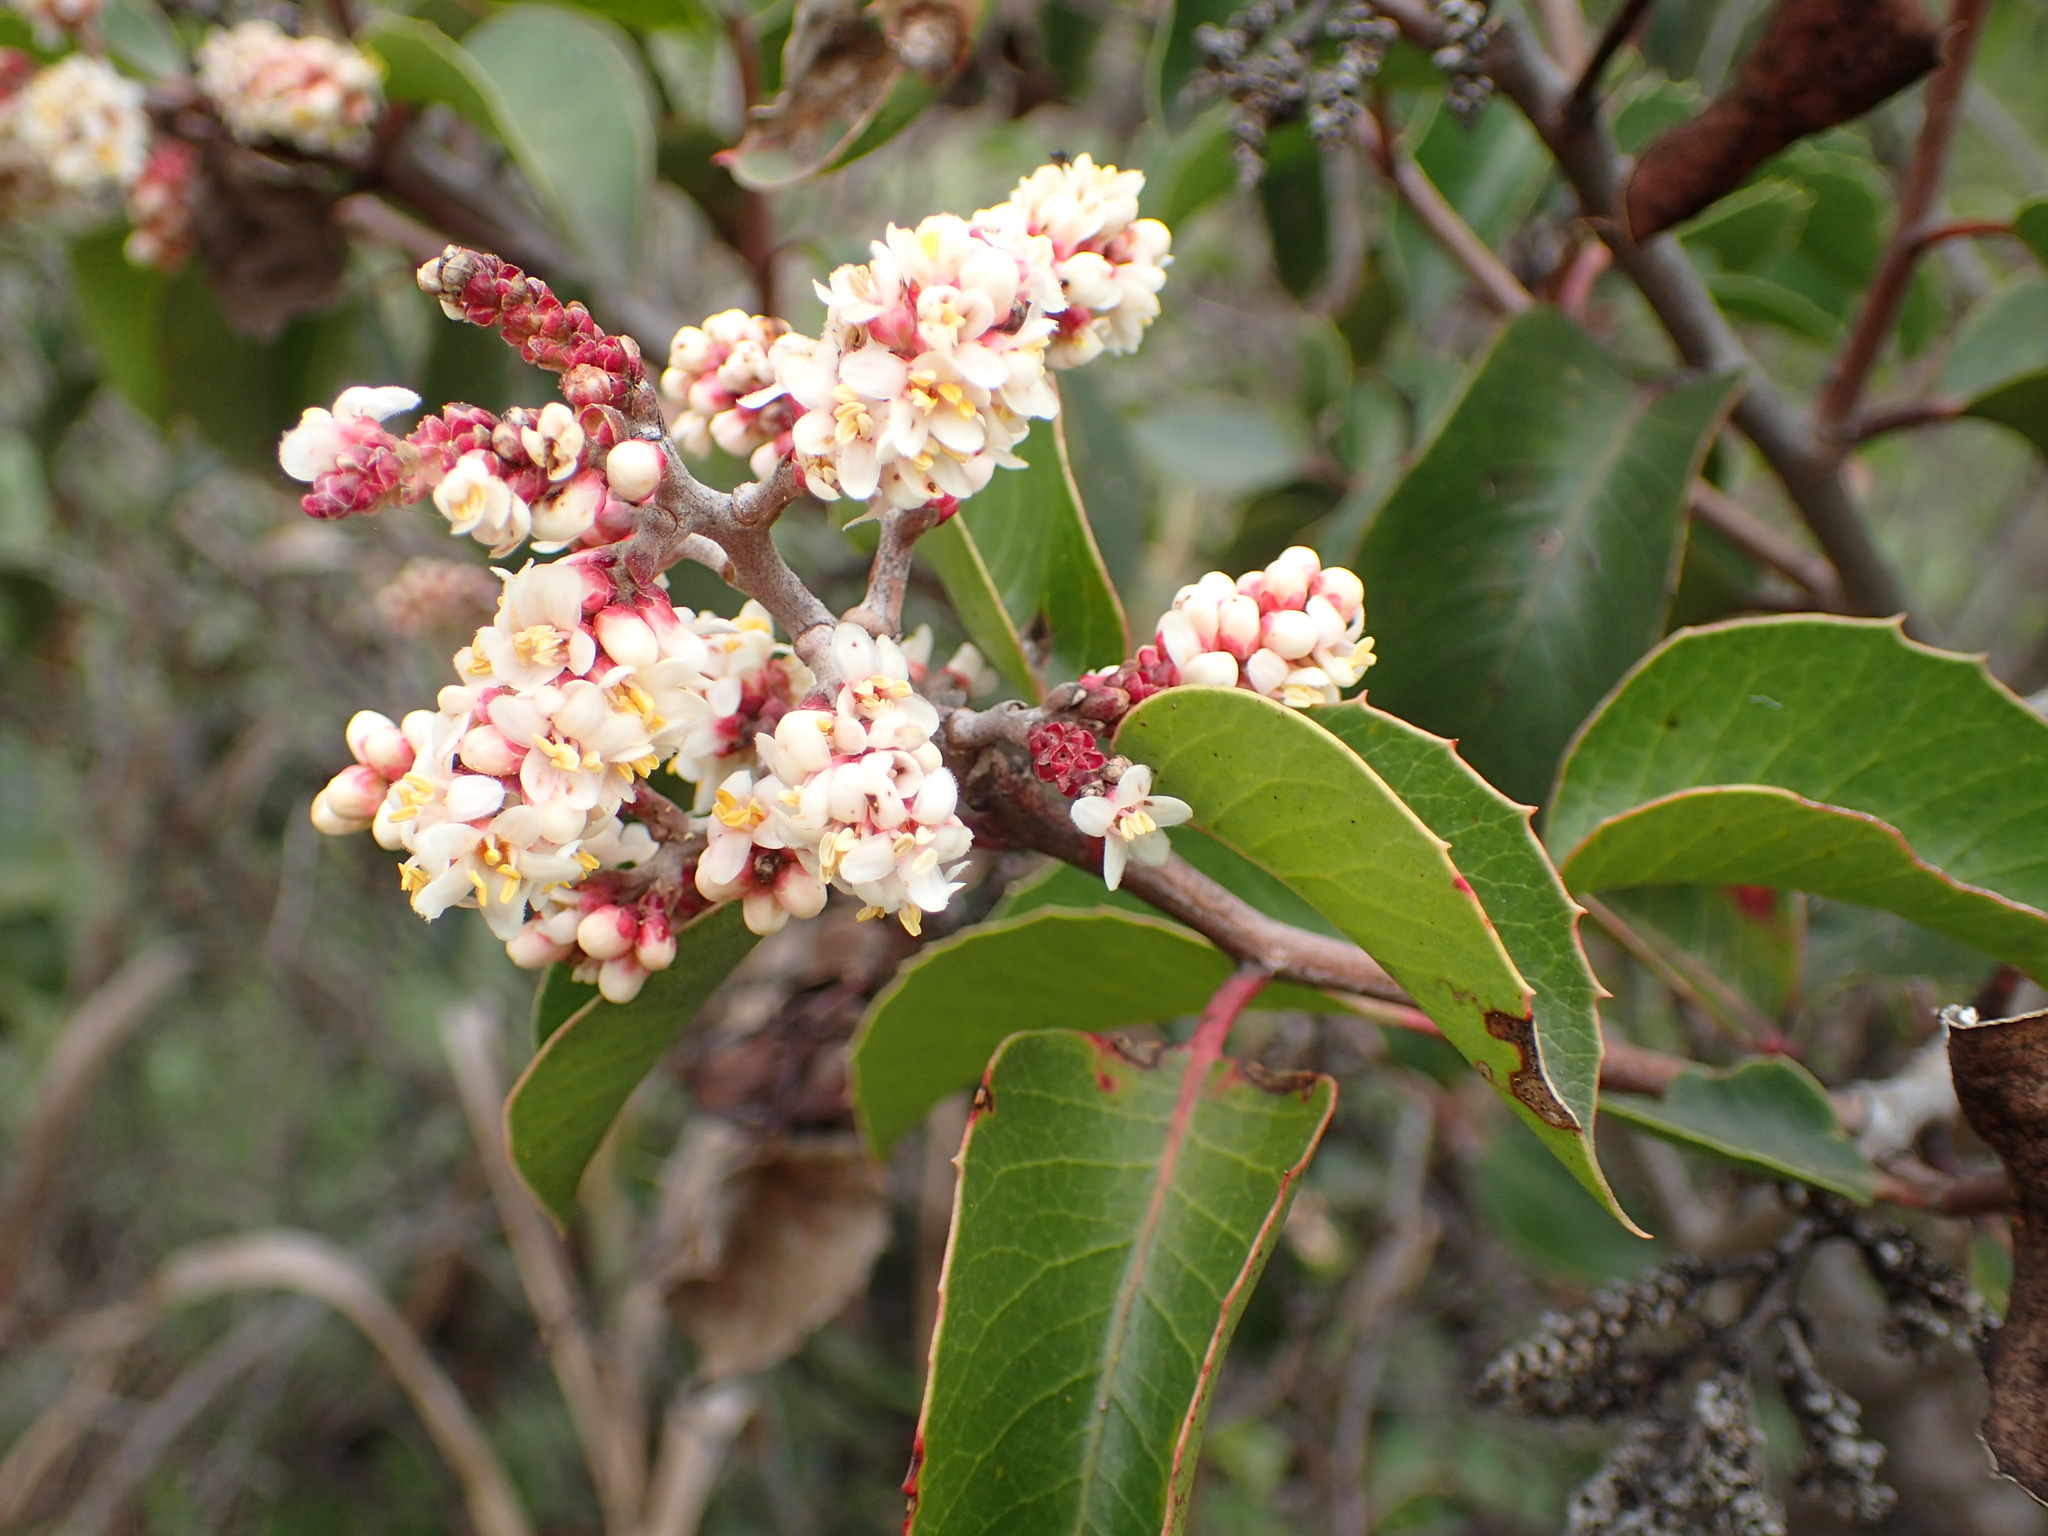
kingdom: Plantae
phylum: Tracheophyta
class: Magnoliopsida
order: Sapindales
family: Anacardiaceae
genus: Rhus
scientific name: Rhus ovata
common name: Sugar sumac
